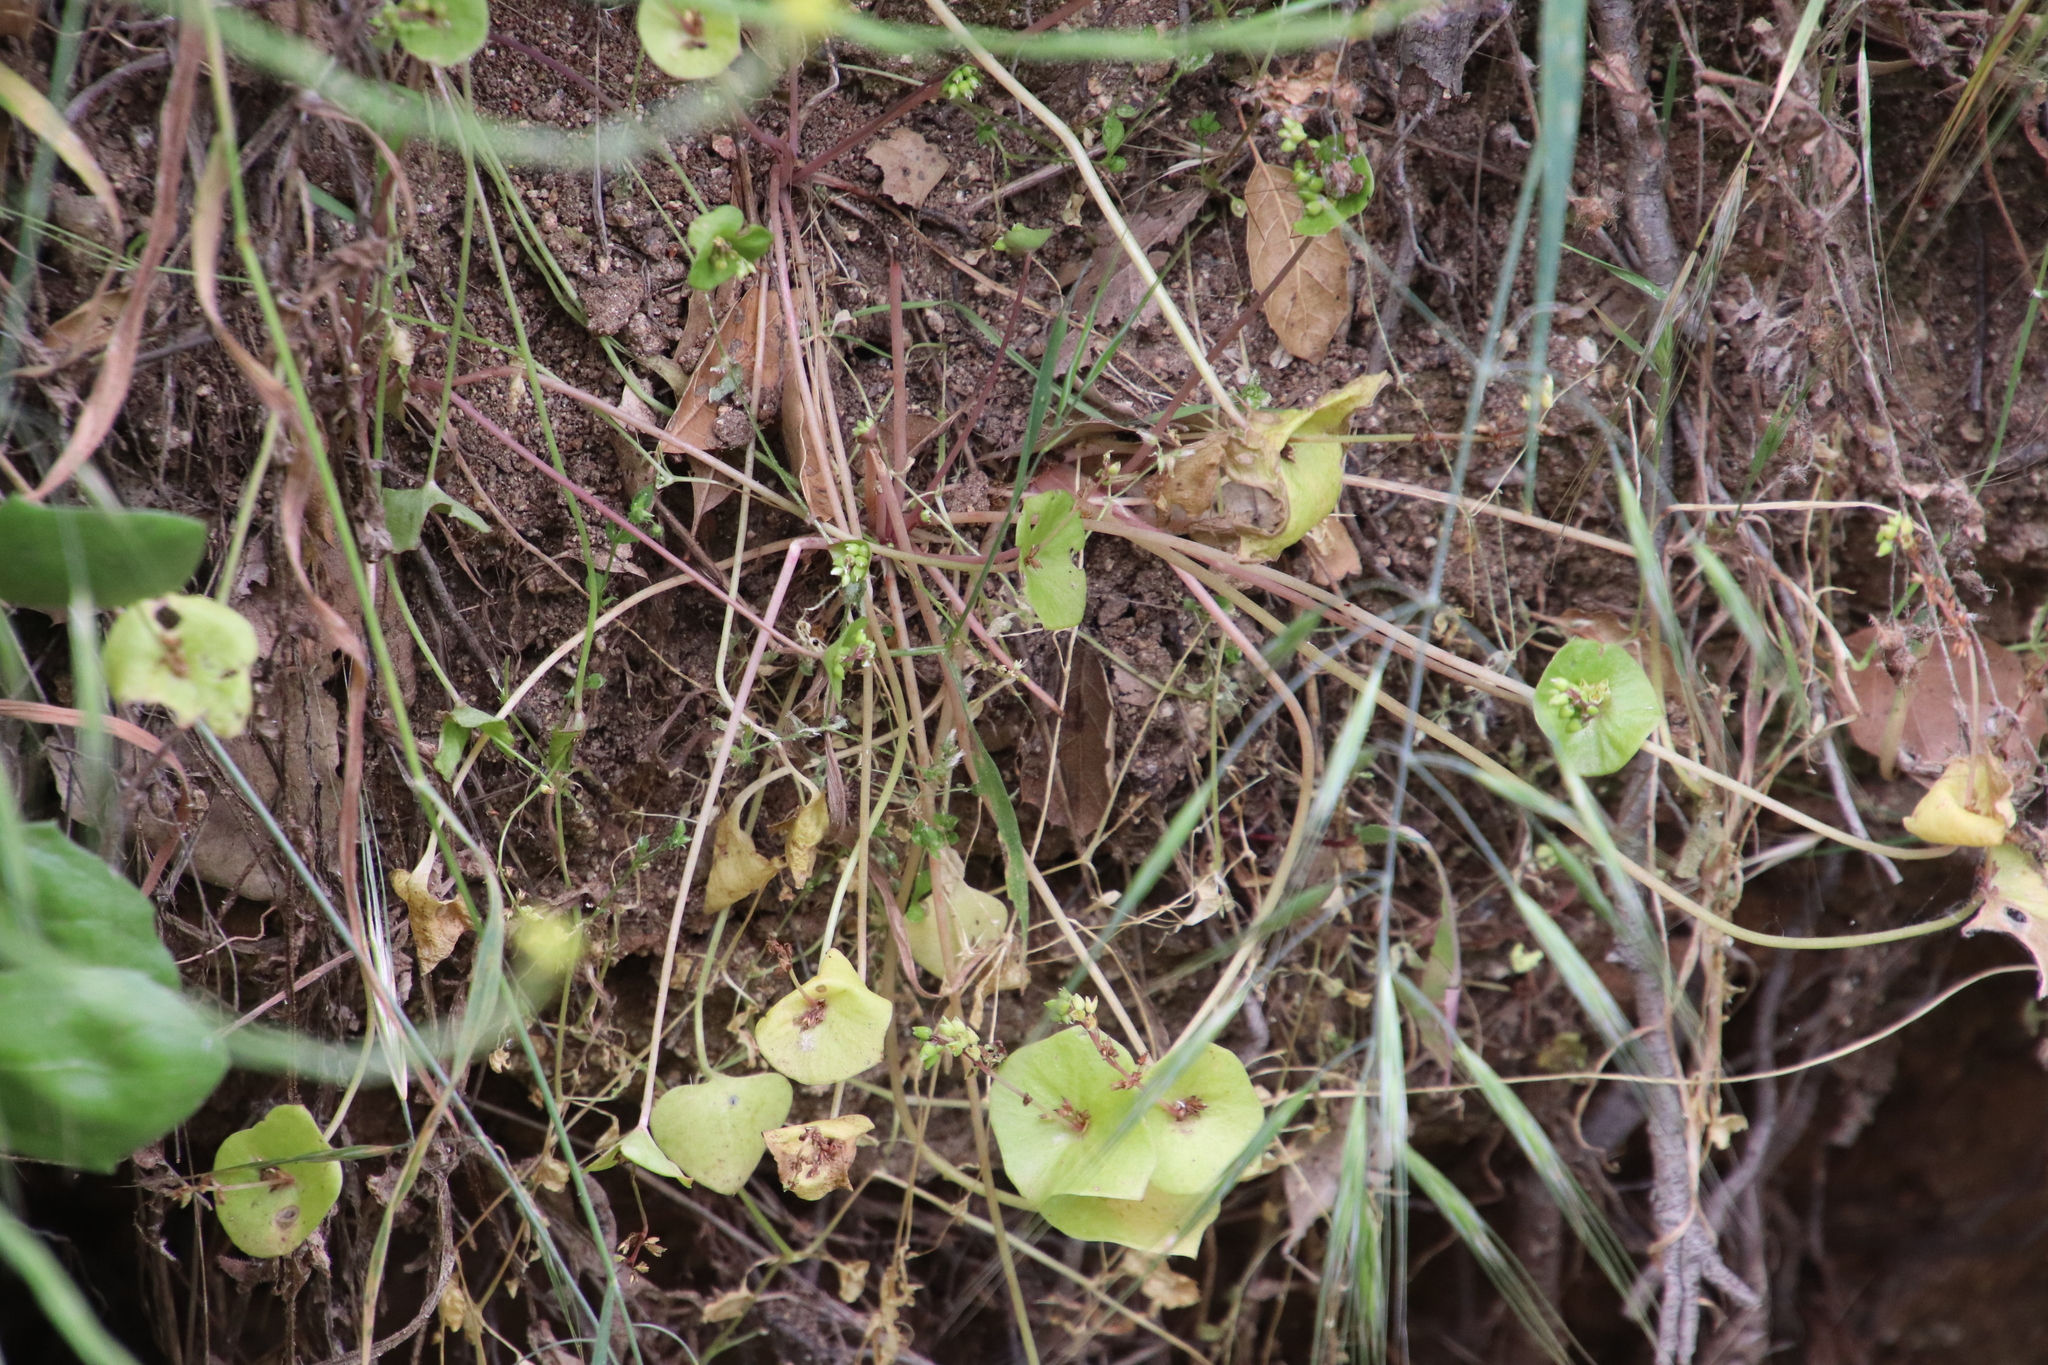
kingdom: Plantae
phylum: Tracheophyta
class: Magnoliopsida
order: Caryophyllales
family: Montiaceae
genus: Claytonia
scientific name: Claytonia perfoliata
